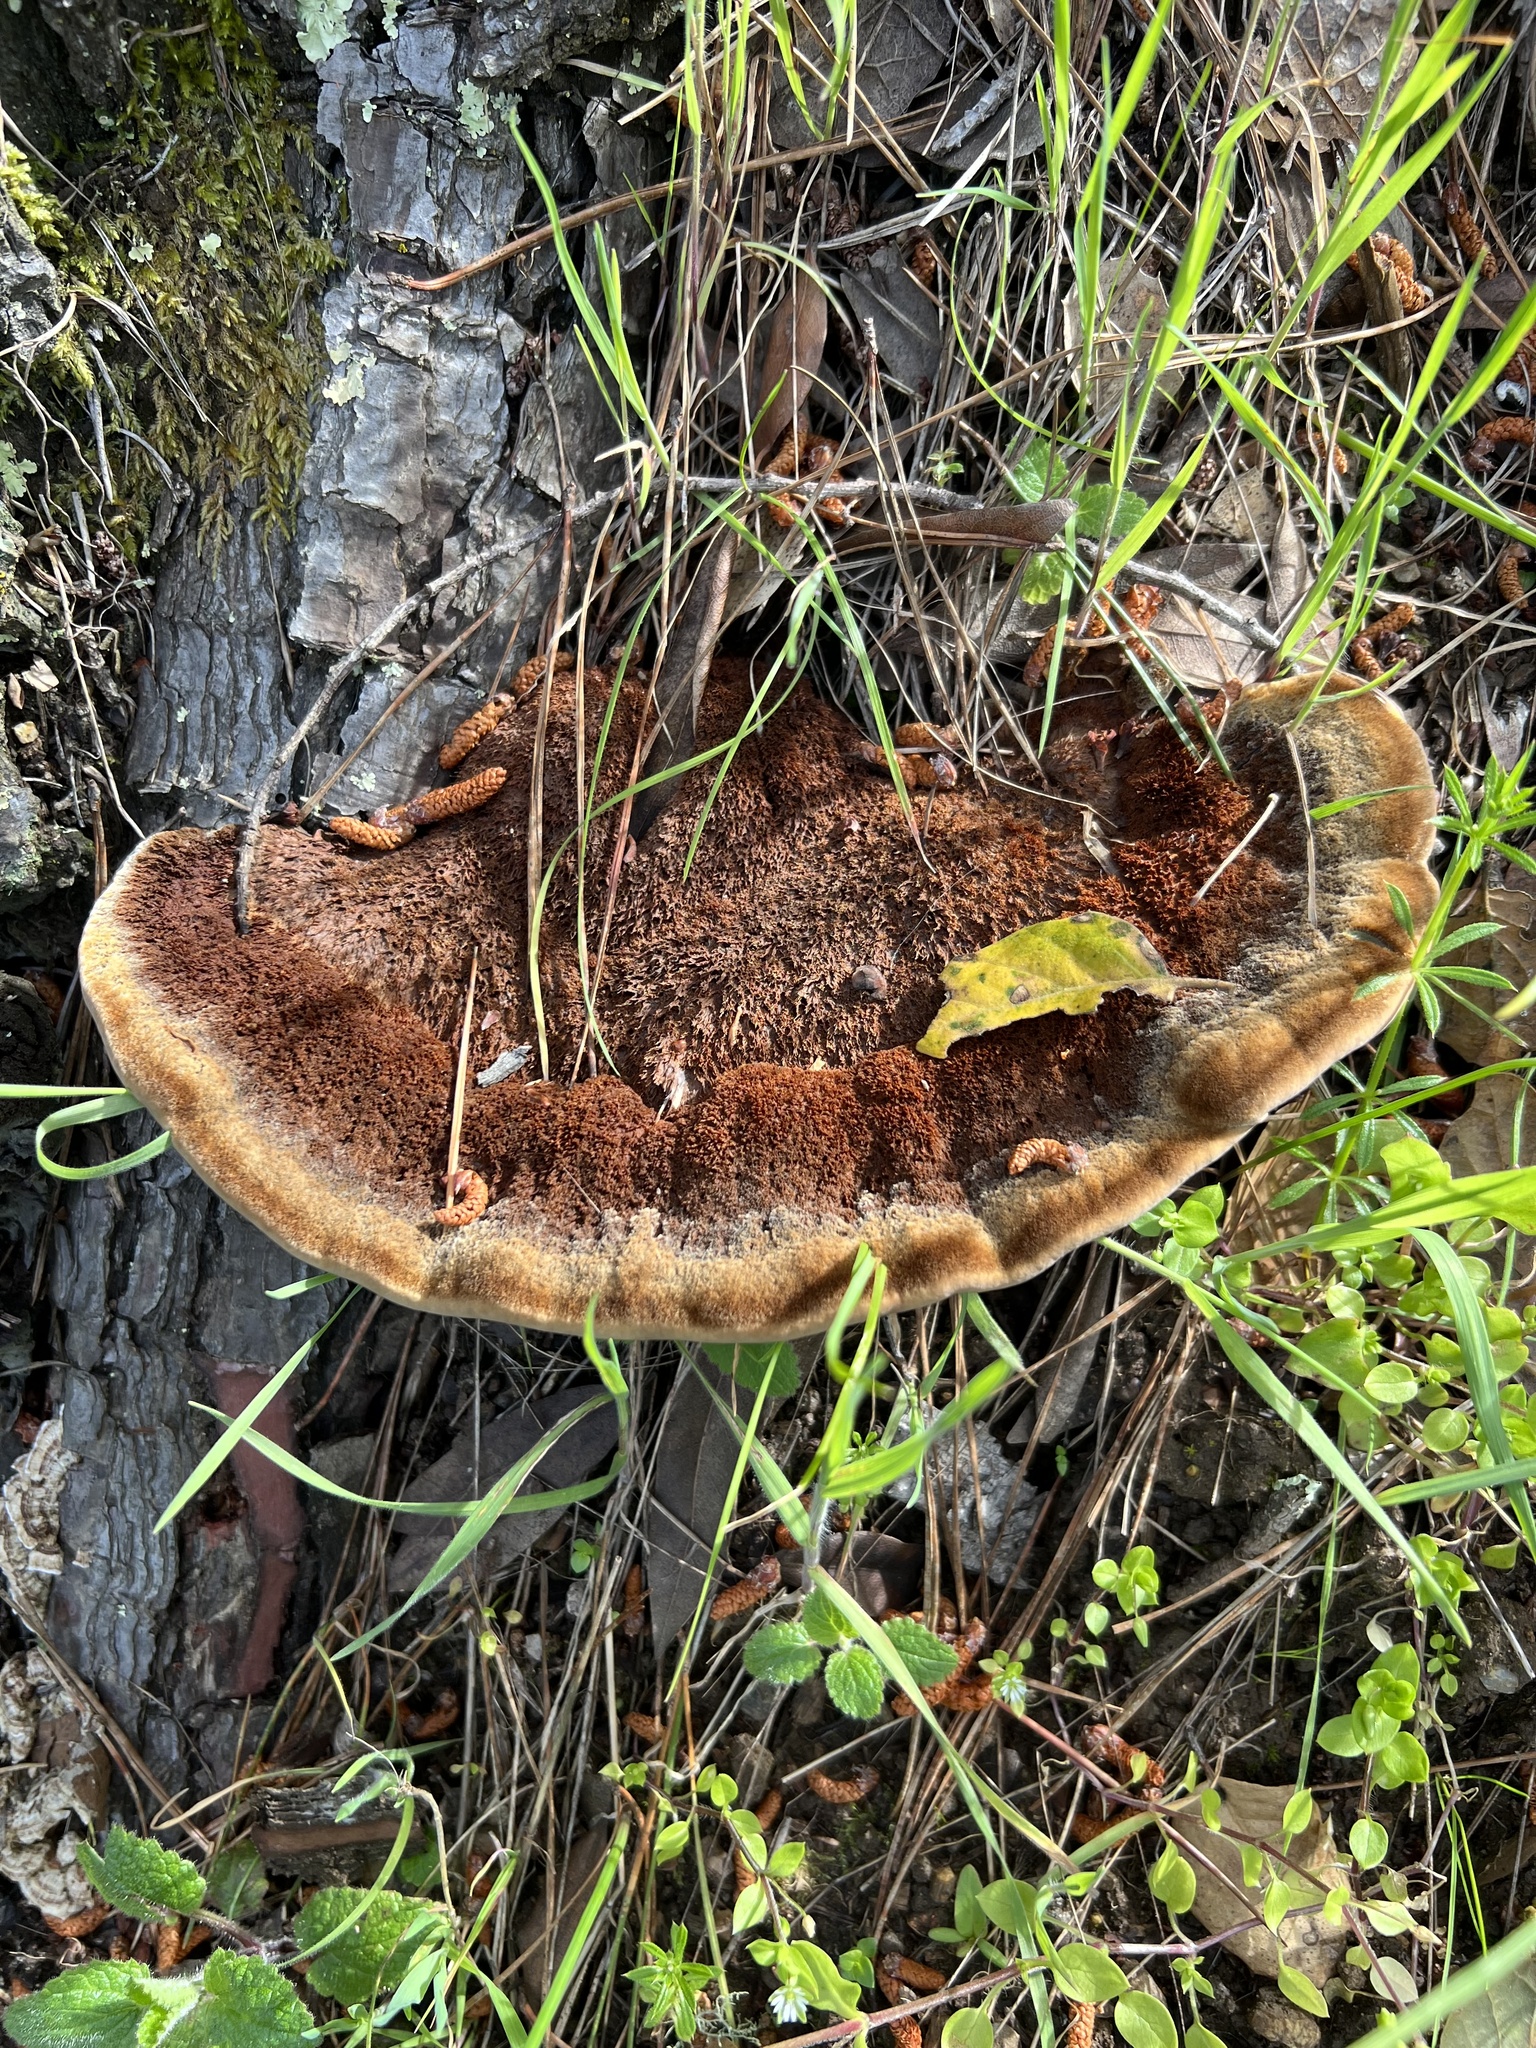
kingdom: Fungi
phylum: Basidiomycota
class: Agaricomycetes
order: Polyporales
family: Laetiporaceae
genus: Phaeolus
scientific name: Phaeolus schweinitzii
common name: Dyer's mazegill
